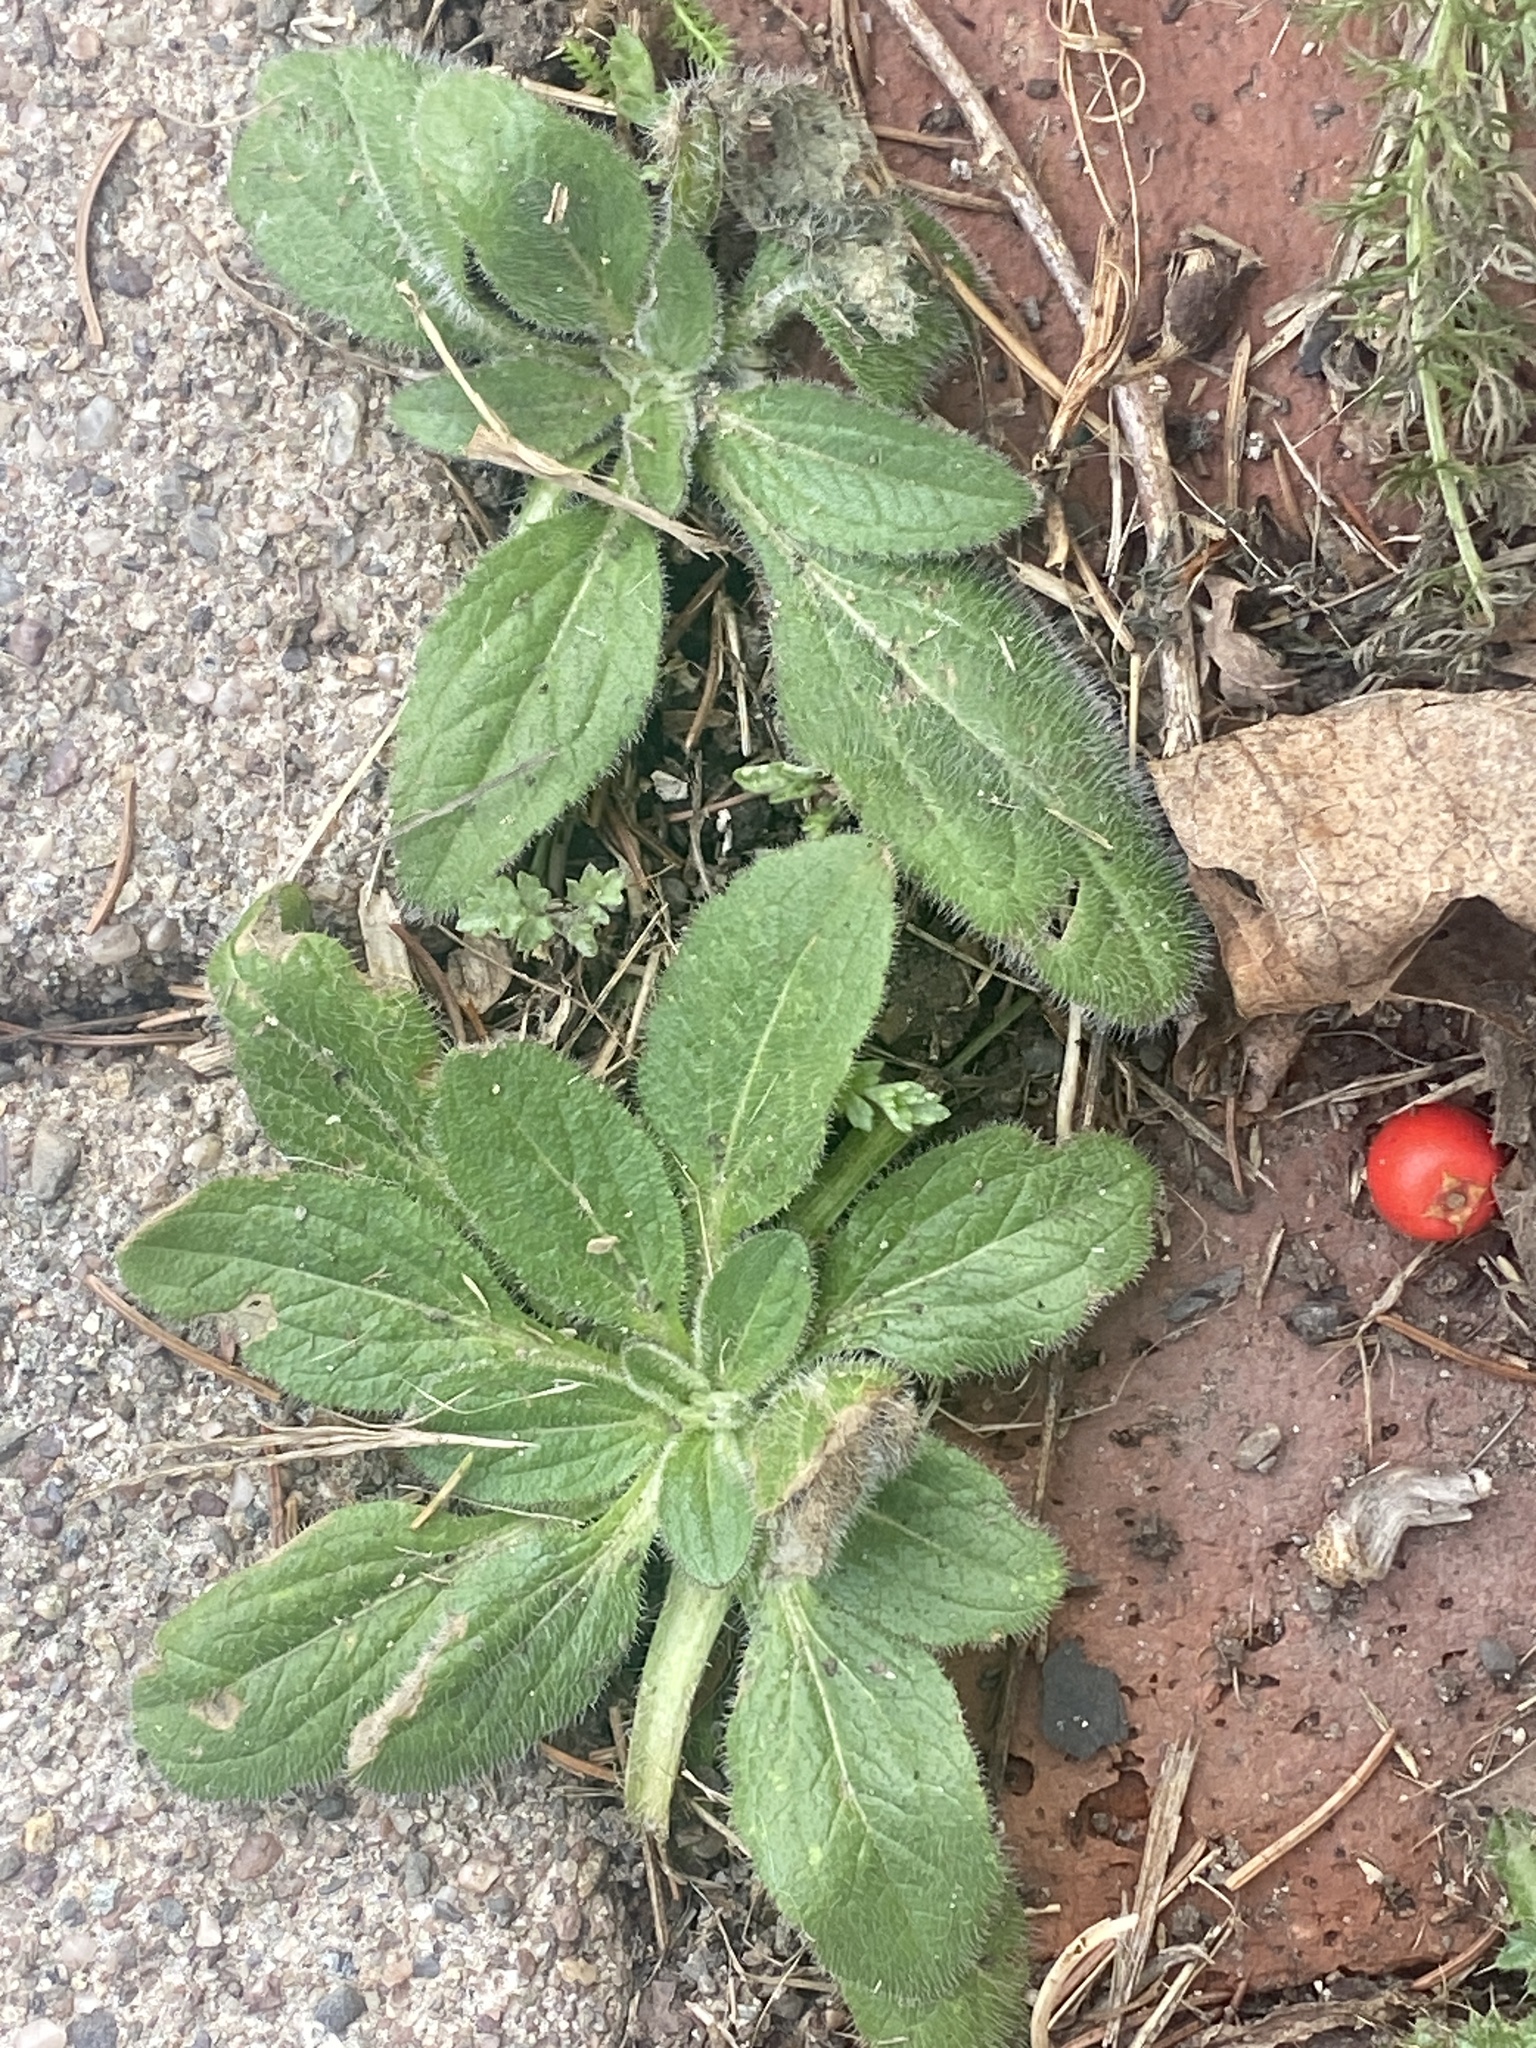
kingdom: Plantae
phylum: Tracheophyta
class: Magnoliopsida
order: Asterales
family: Asteraceae
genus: Rudbeckia
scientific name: Rudbeckia hirta
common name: Black-eyed-susan
